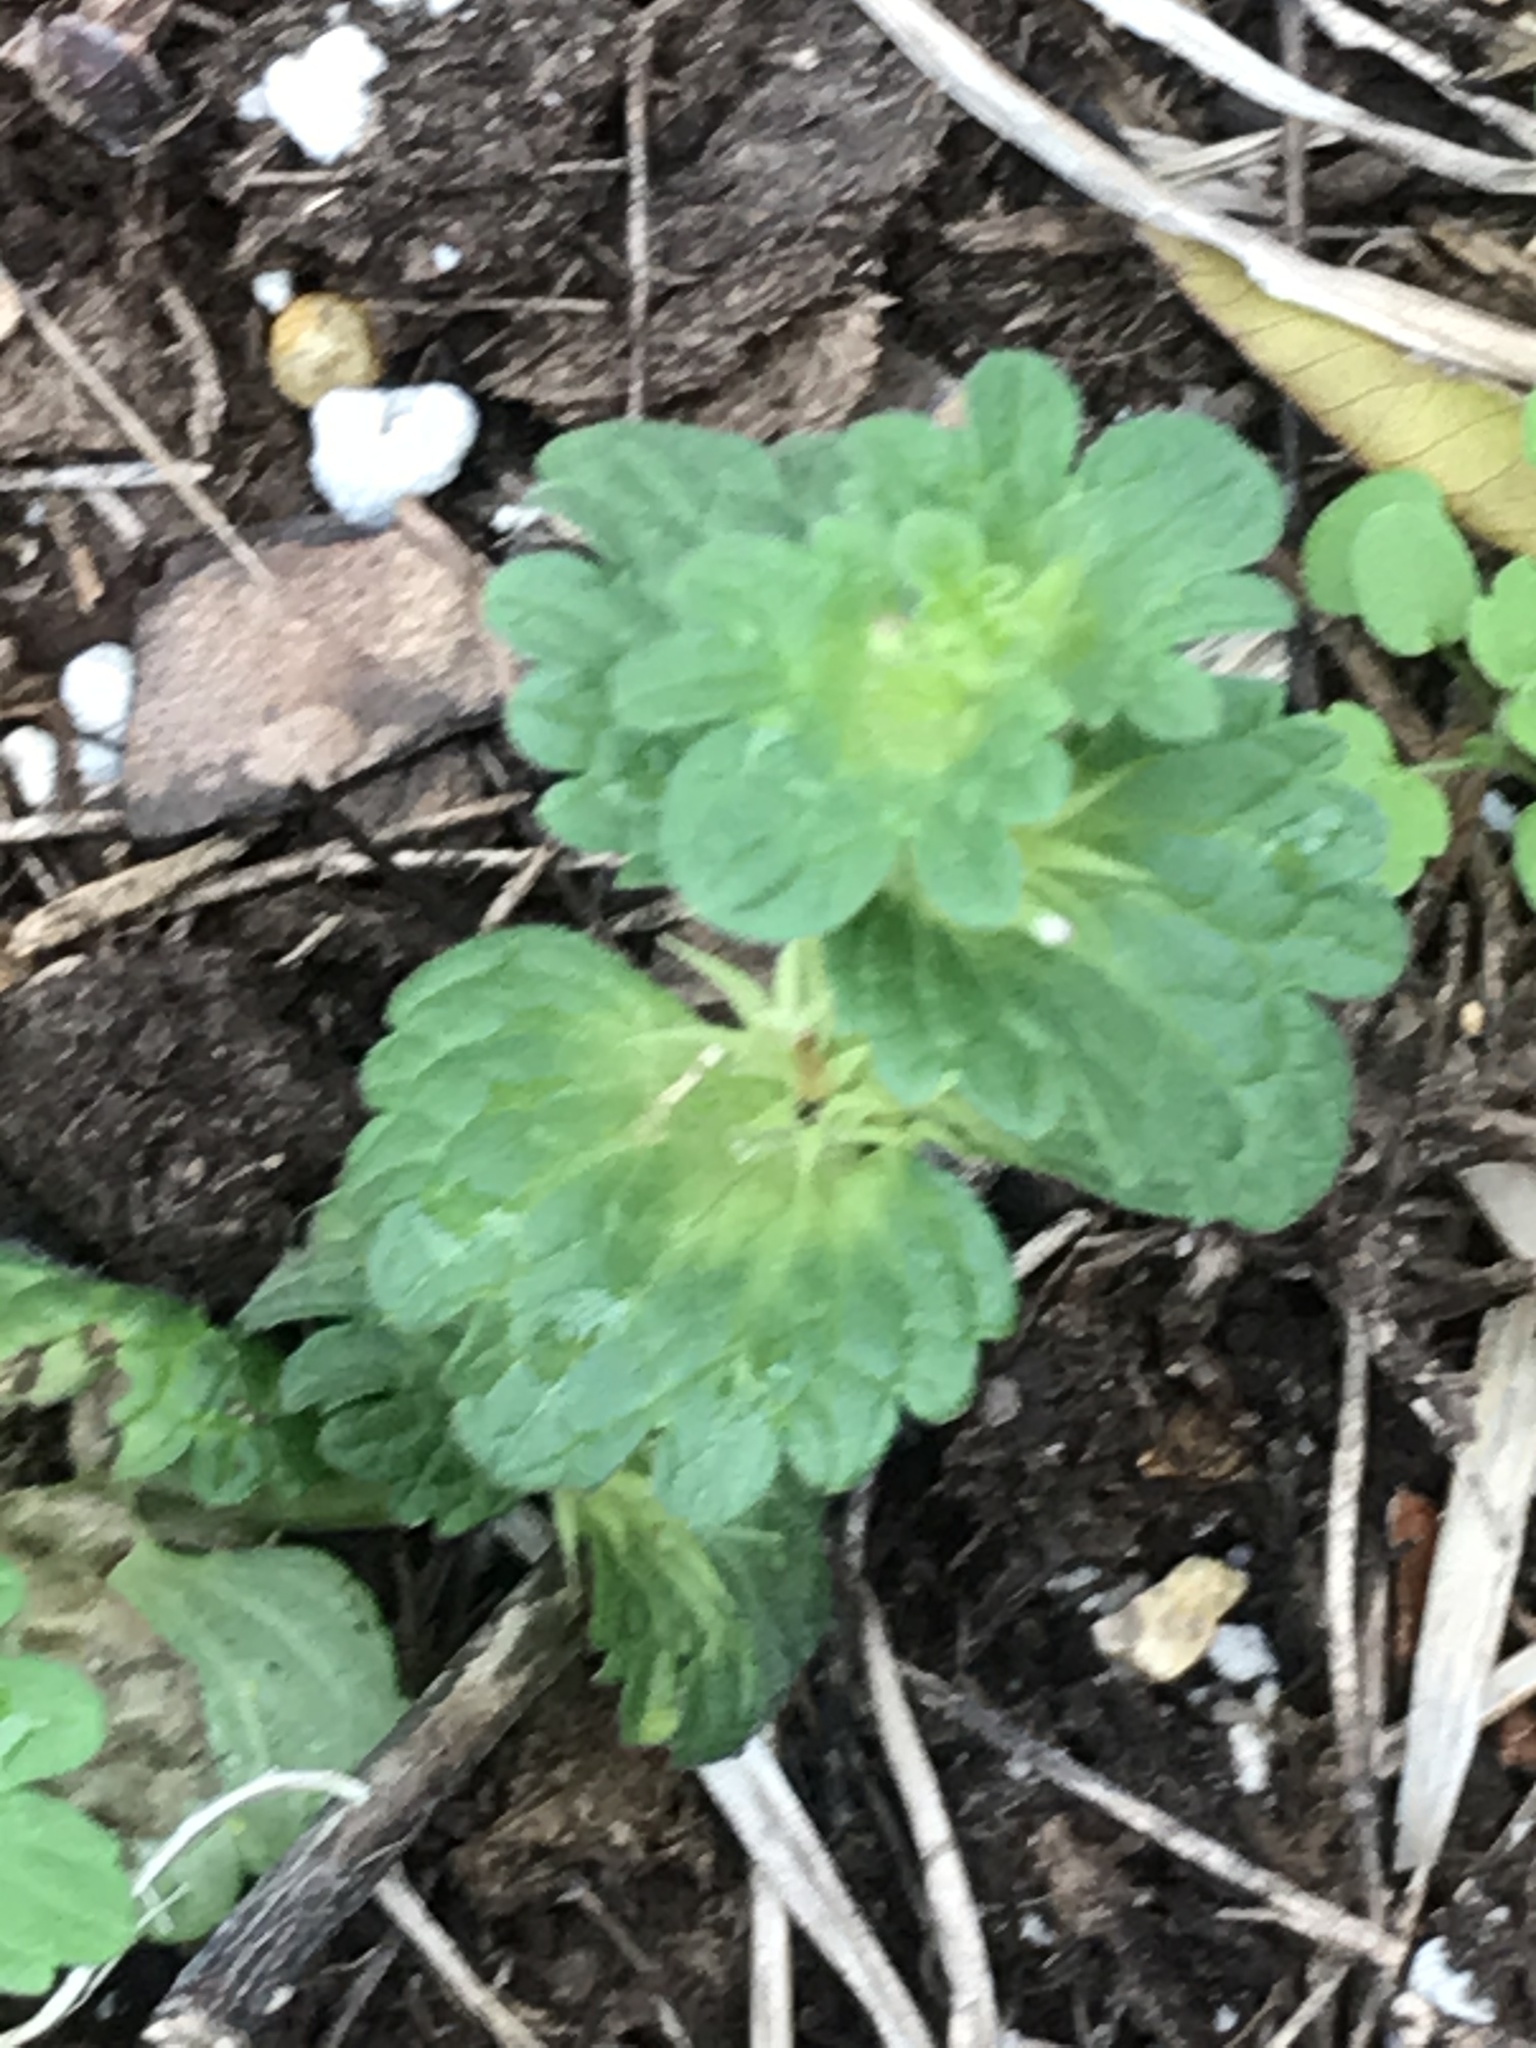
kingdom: Plantae
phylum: Tracheophyta
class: Magnoliopsida
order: Lamiales
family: Lamiaceae
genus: Lamium
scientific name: Lamium amplexicaule
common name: Henbit dead-nettle
